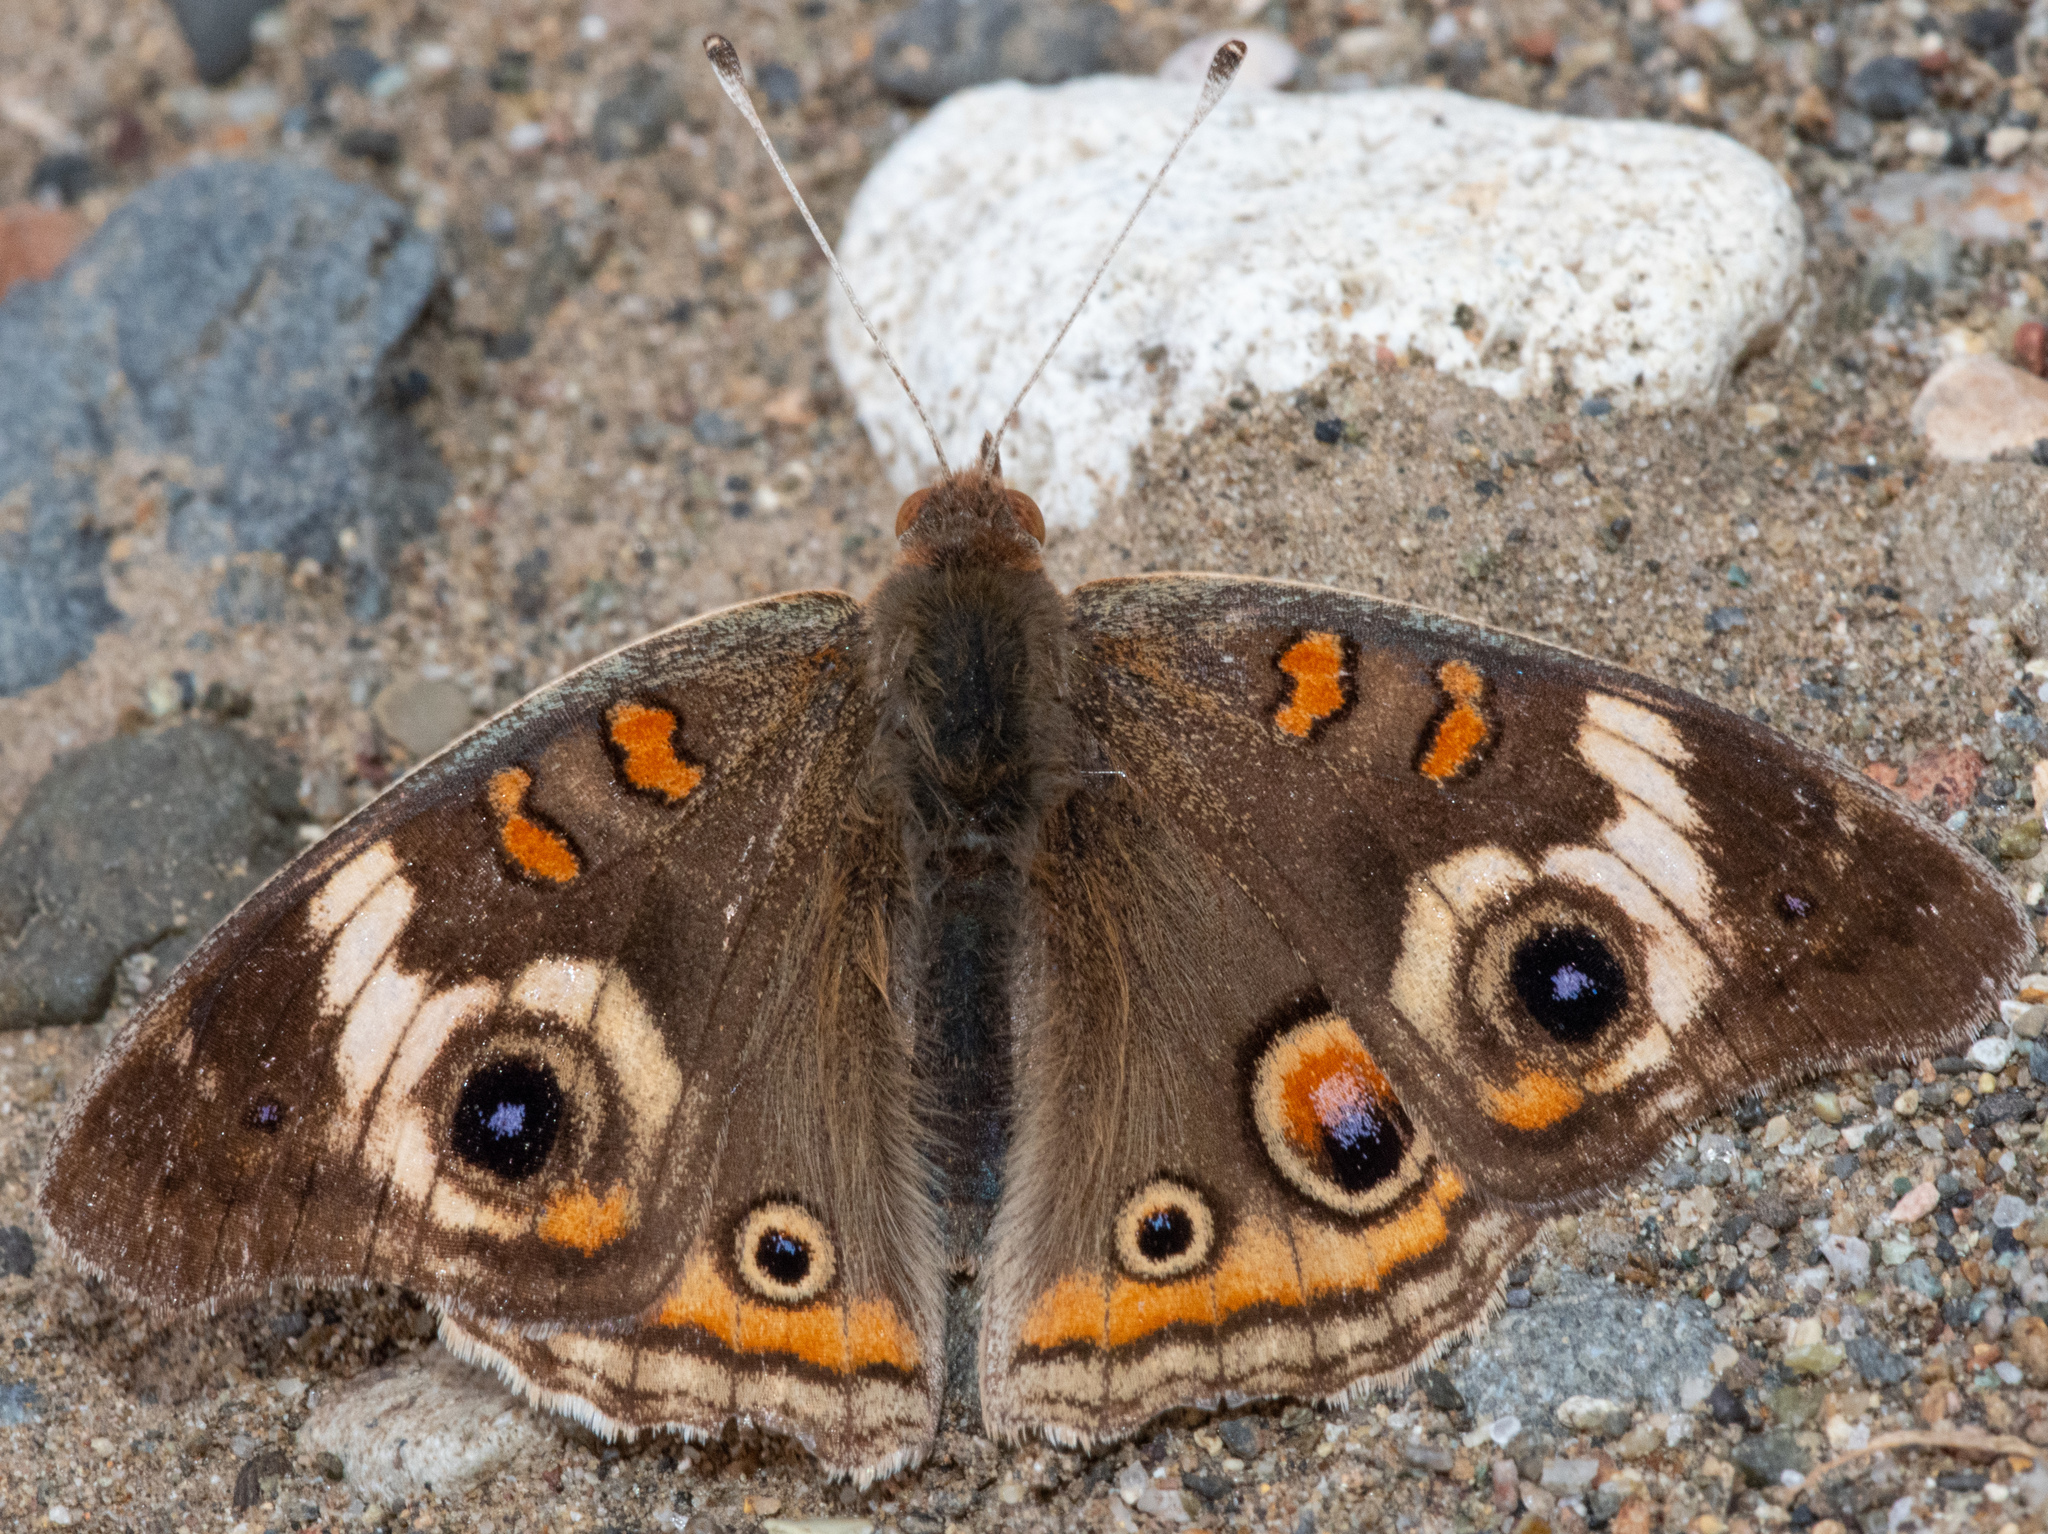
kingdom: Animalia
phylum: Arthropoda
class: Insecta
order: Lepidoptera
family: Nymphalidae
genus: Junonia
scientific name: Junonia grisea
